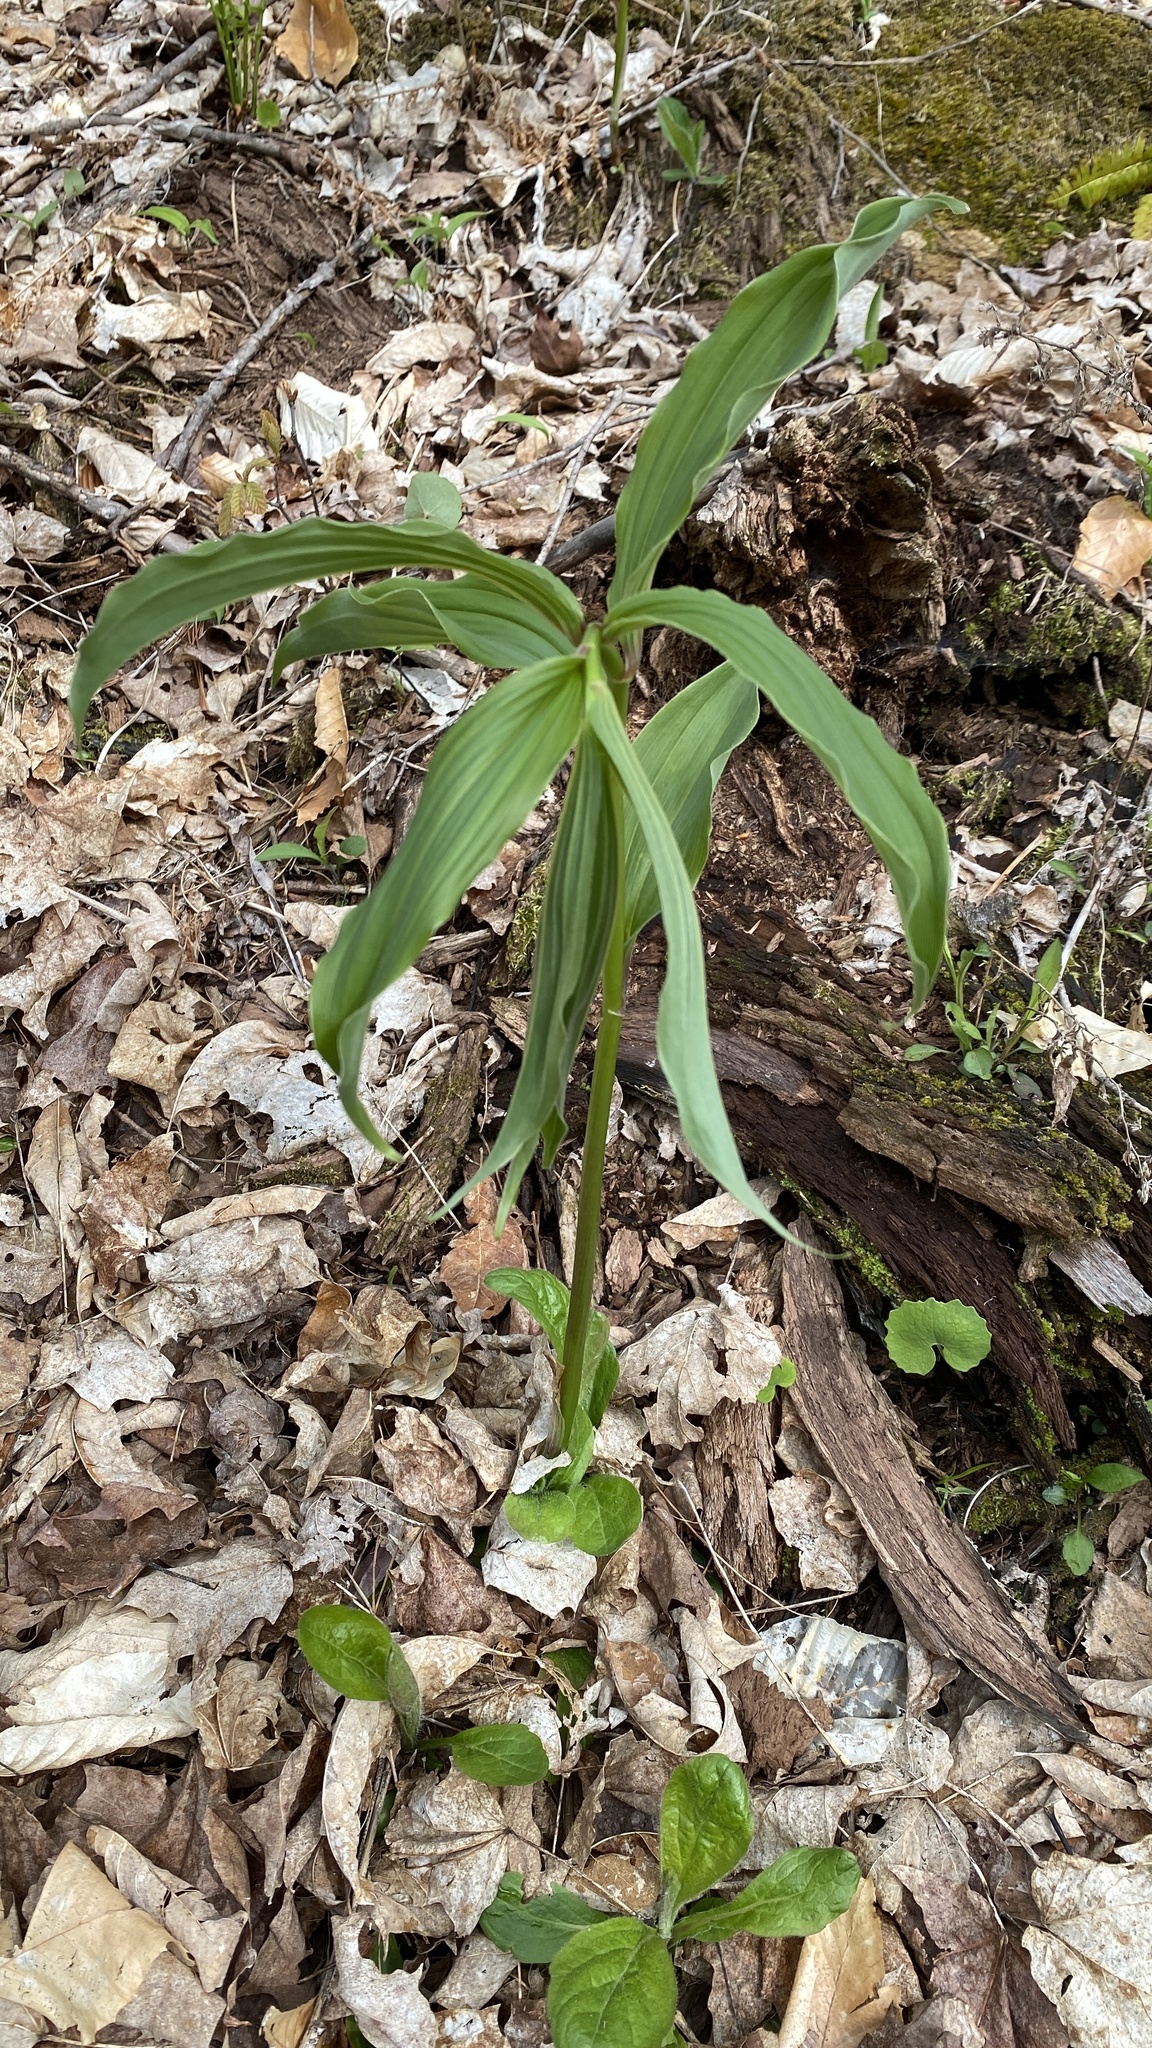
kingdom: Plantae
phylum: Tracheophyta
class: Liliopsida
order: Asparagales
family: Asparagaceae
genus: Maianthemum
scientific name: Maianthemum racemosum
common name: False spikenard
